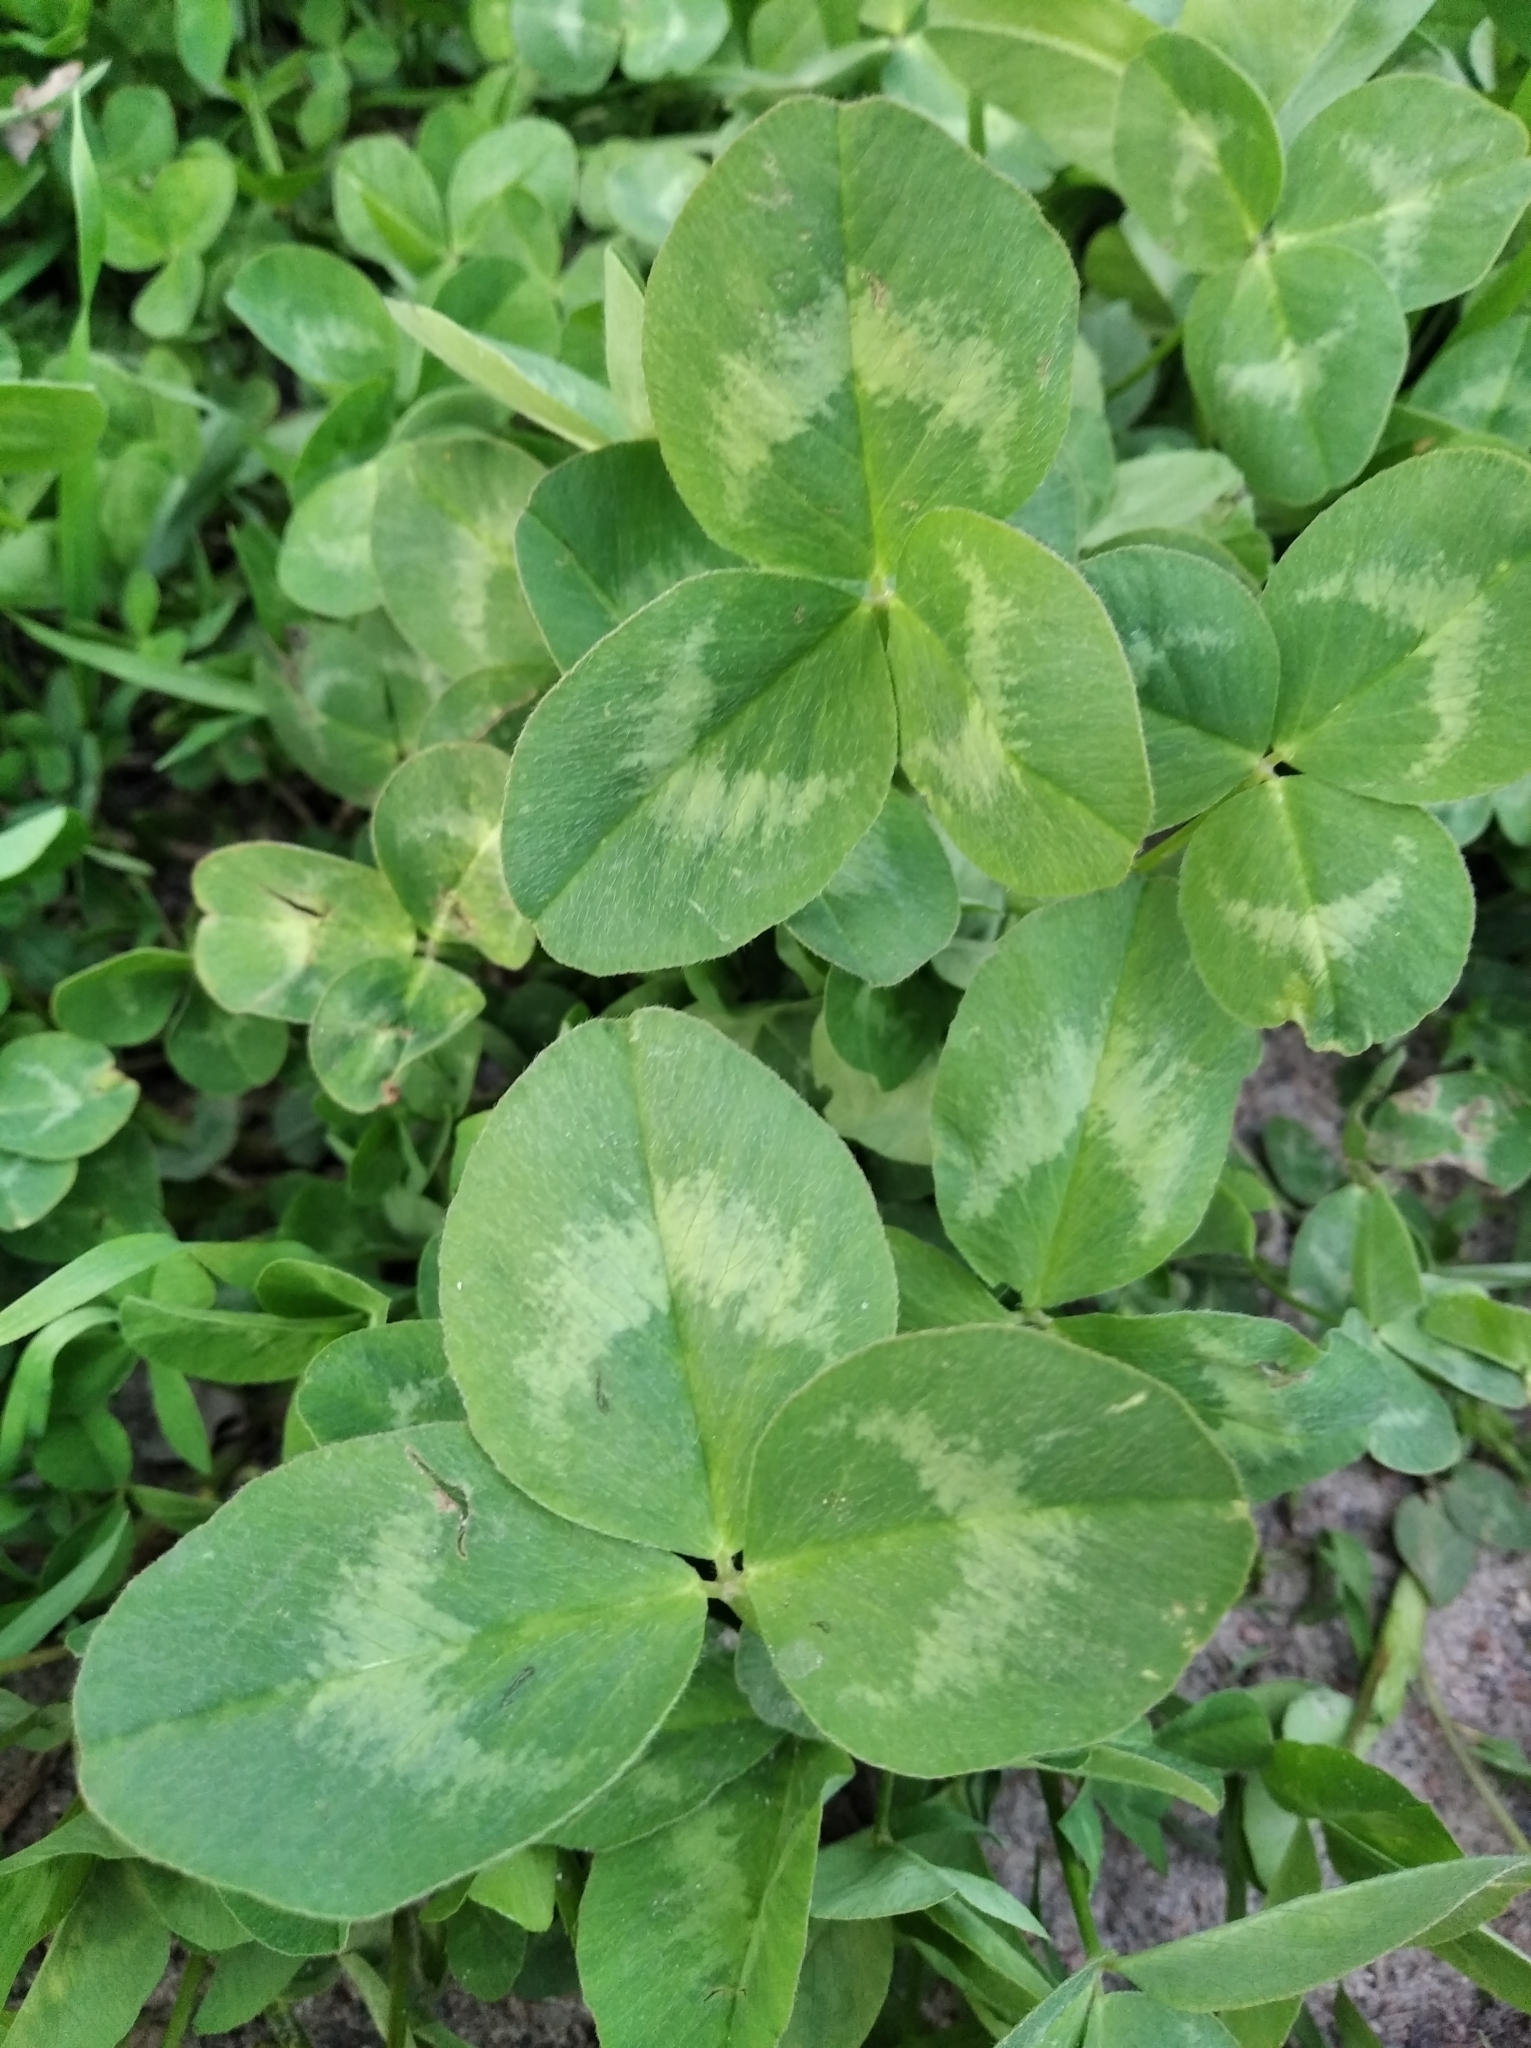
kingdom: Plantae
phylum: Tracheophyta
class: Magnoliopsida
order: Fabales
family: Fabaceae
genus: Trifolium
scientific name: Trifolium pratense
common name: Red clover
